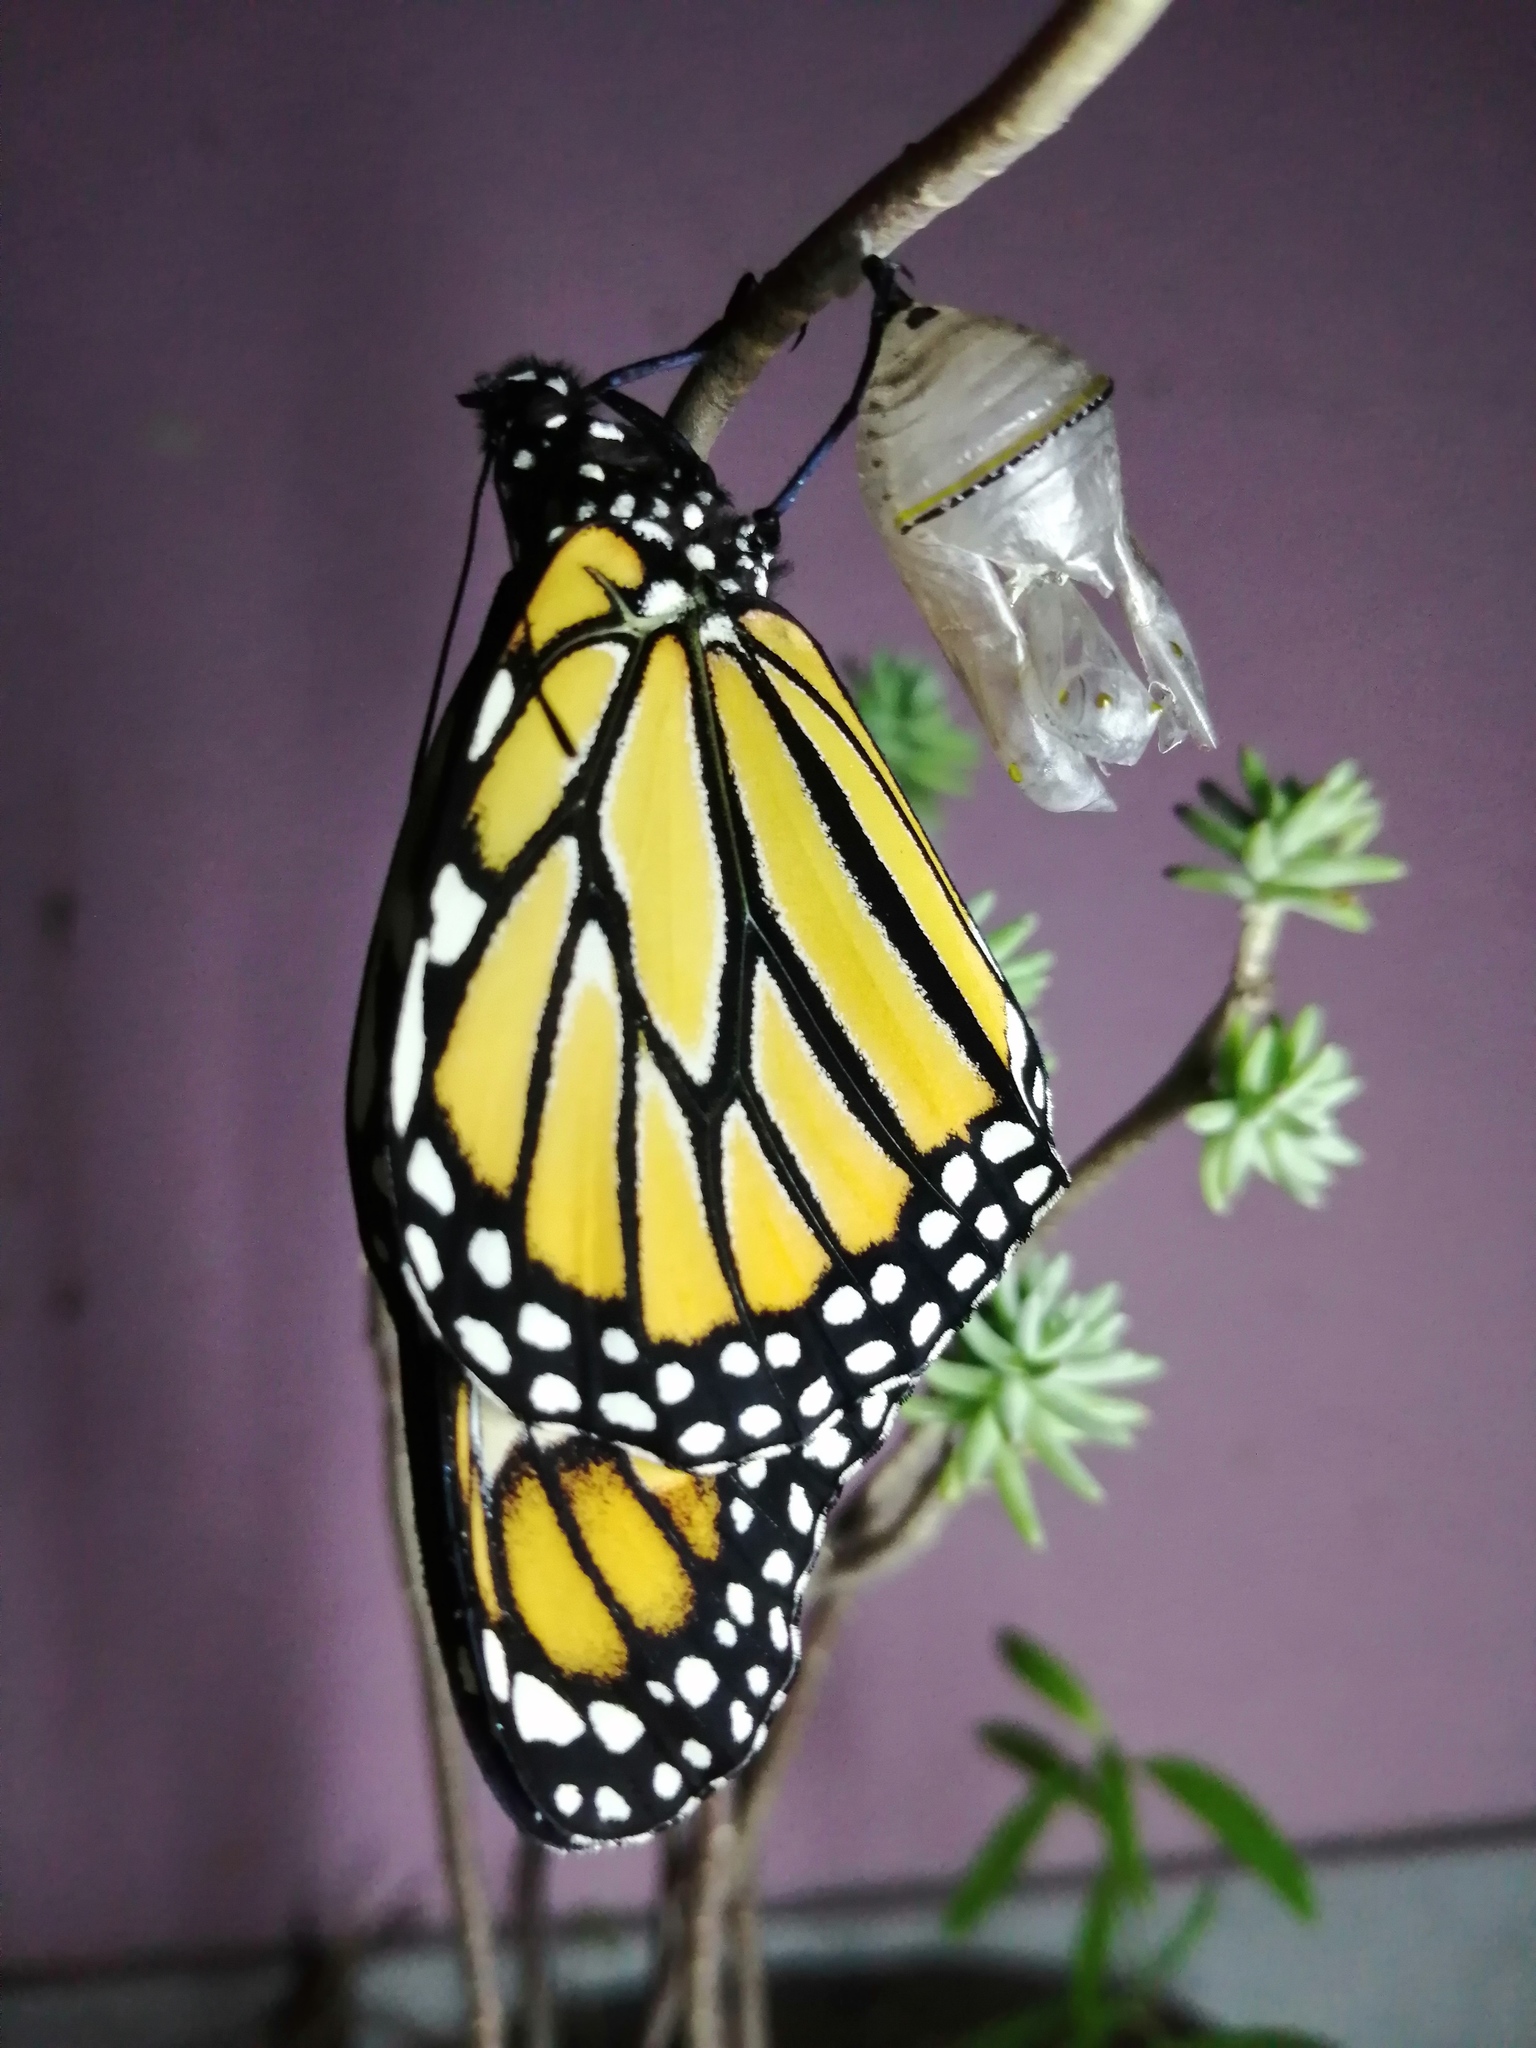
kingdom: Animalia
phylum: Arthropoda
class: Insecta
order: Lepidoptera
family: Nymphalidae
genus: Danaus
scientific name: Danaus plexippus
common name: Monarch
